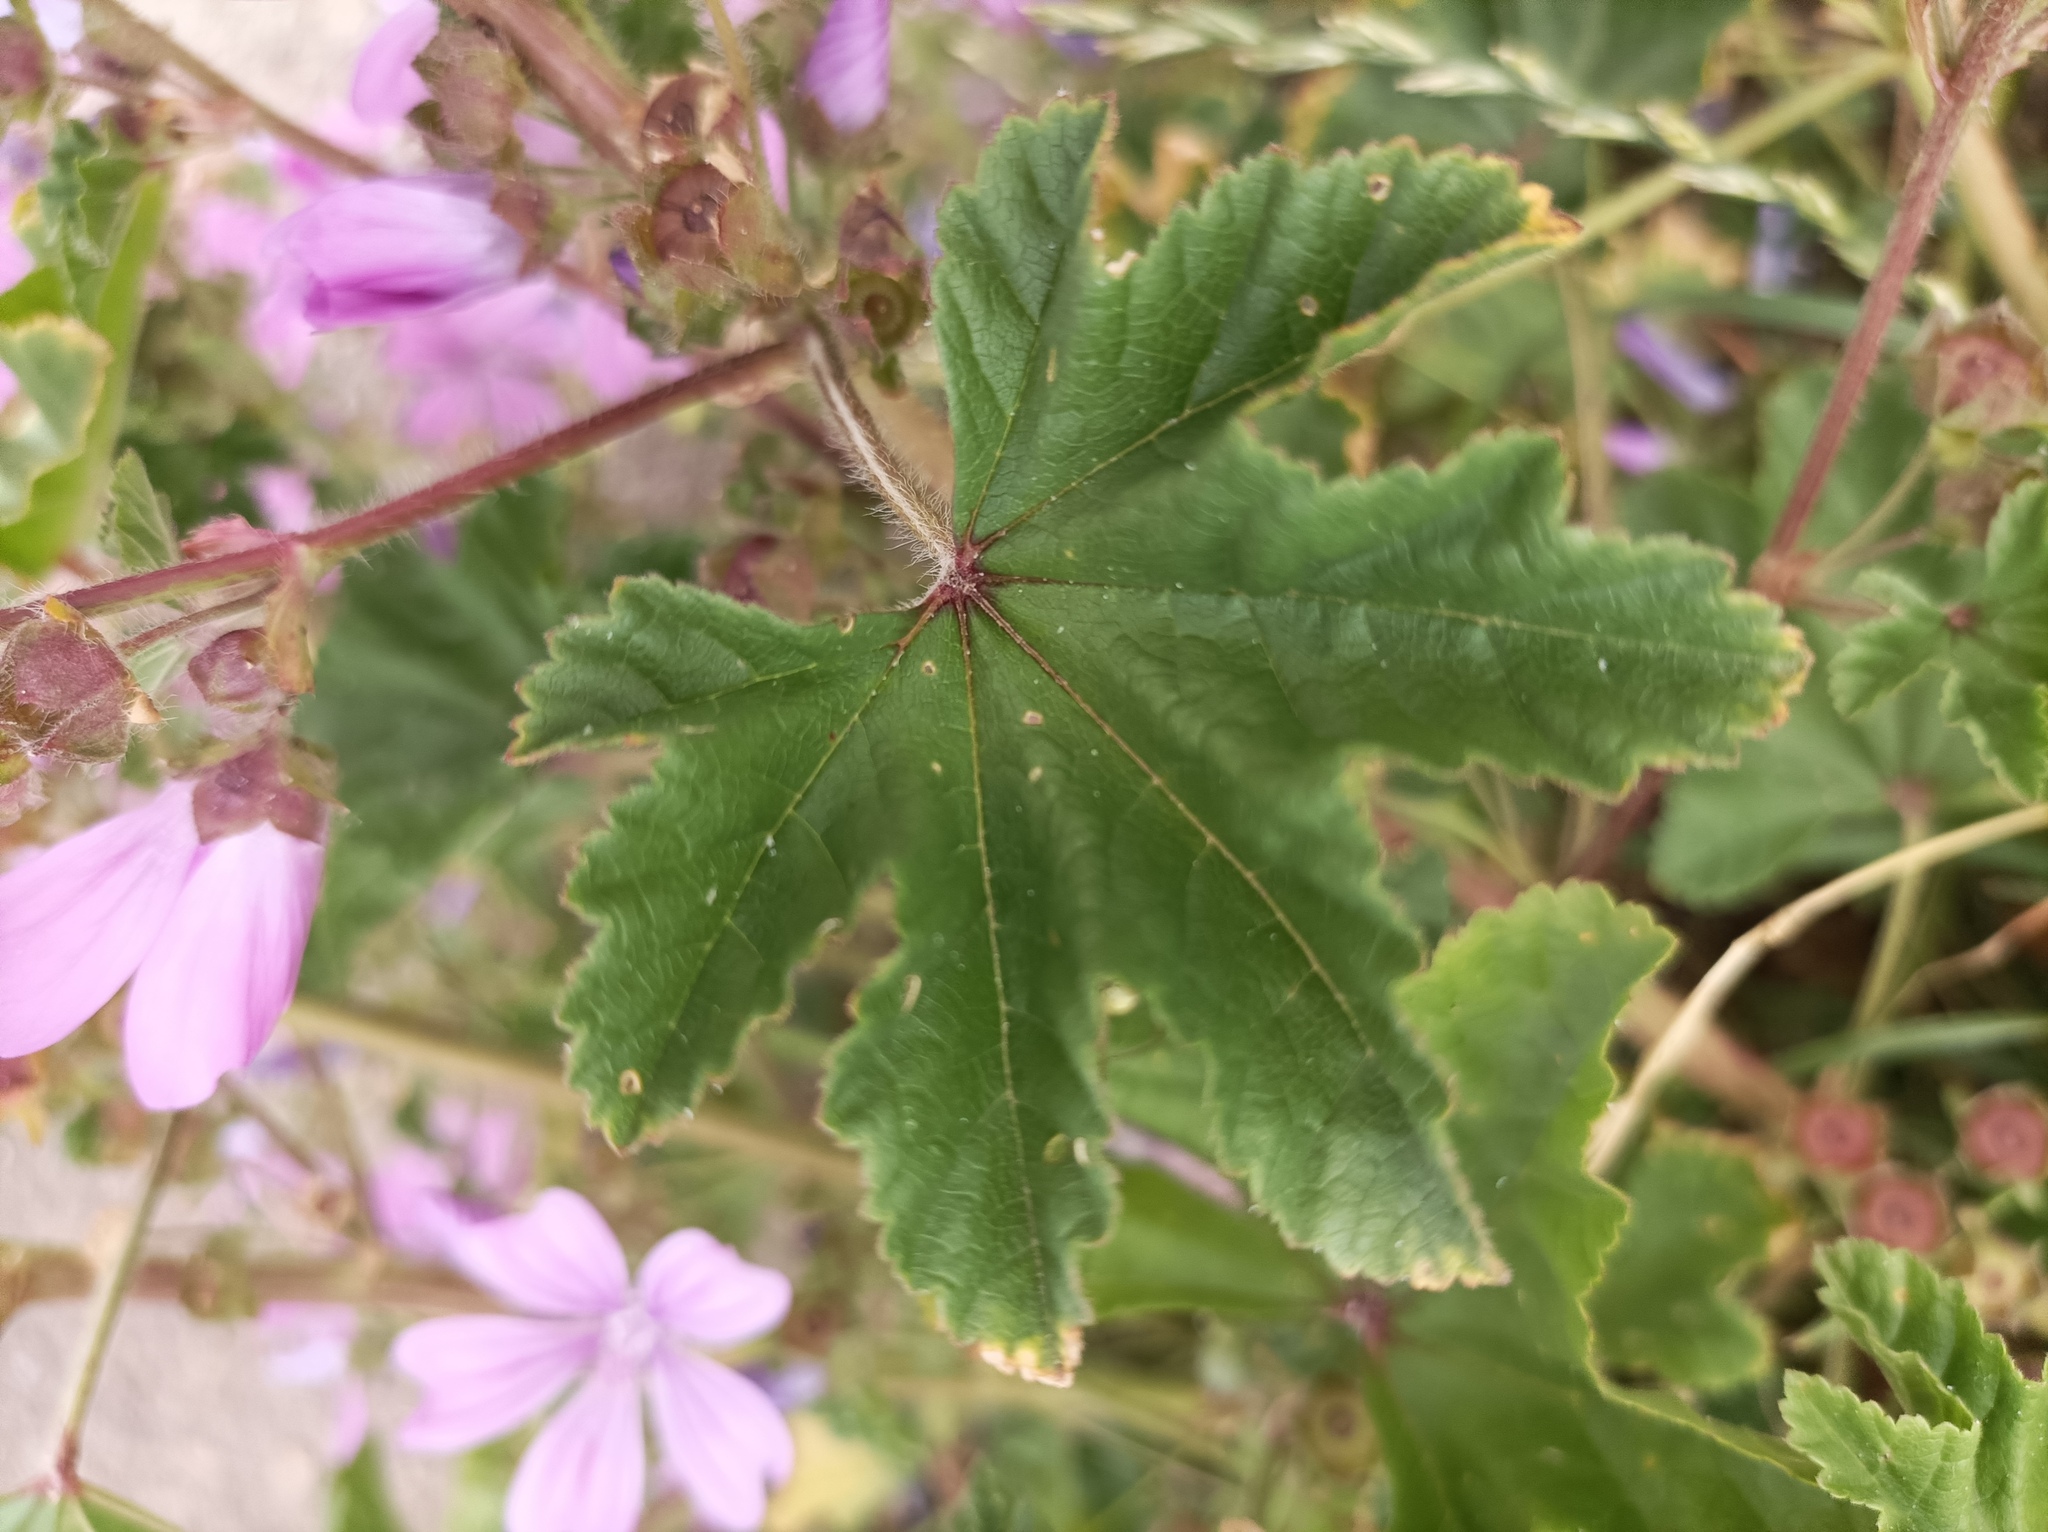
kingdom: Plantae
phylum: Tracheophyta
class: Magnoliopsida
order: Malvales
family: Malvaceae
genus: Malva
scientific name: Malva sylvestris
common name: Common mallow
